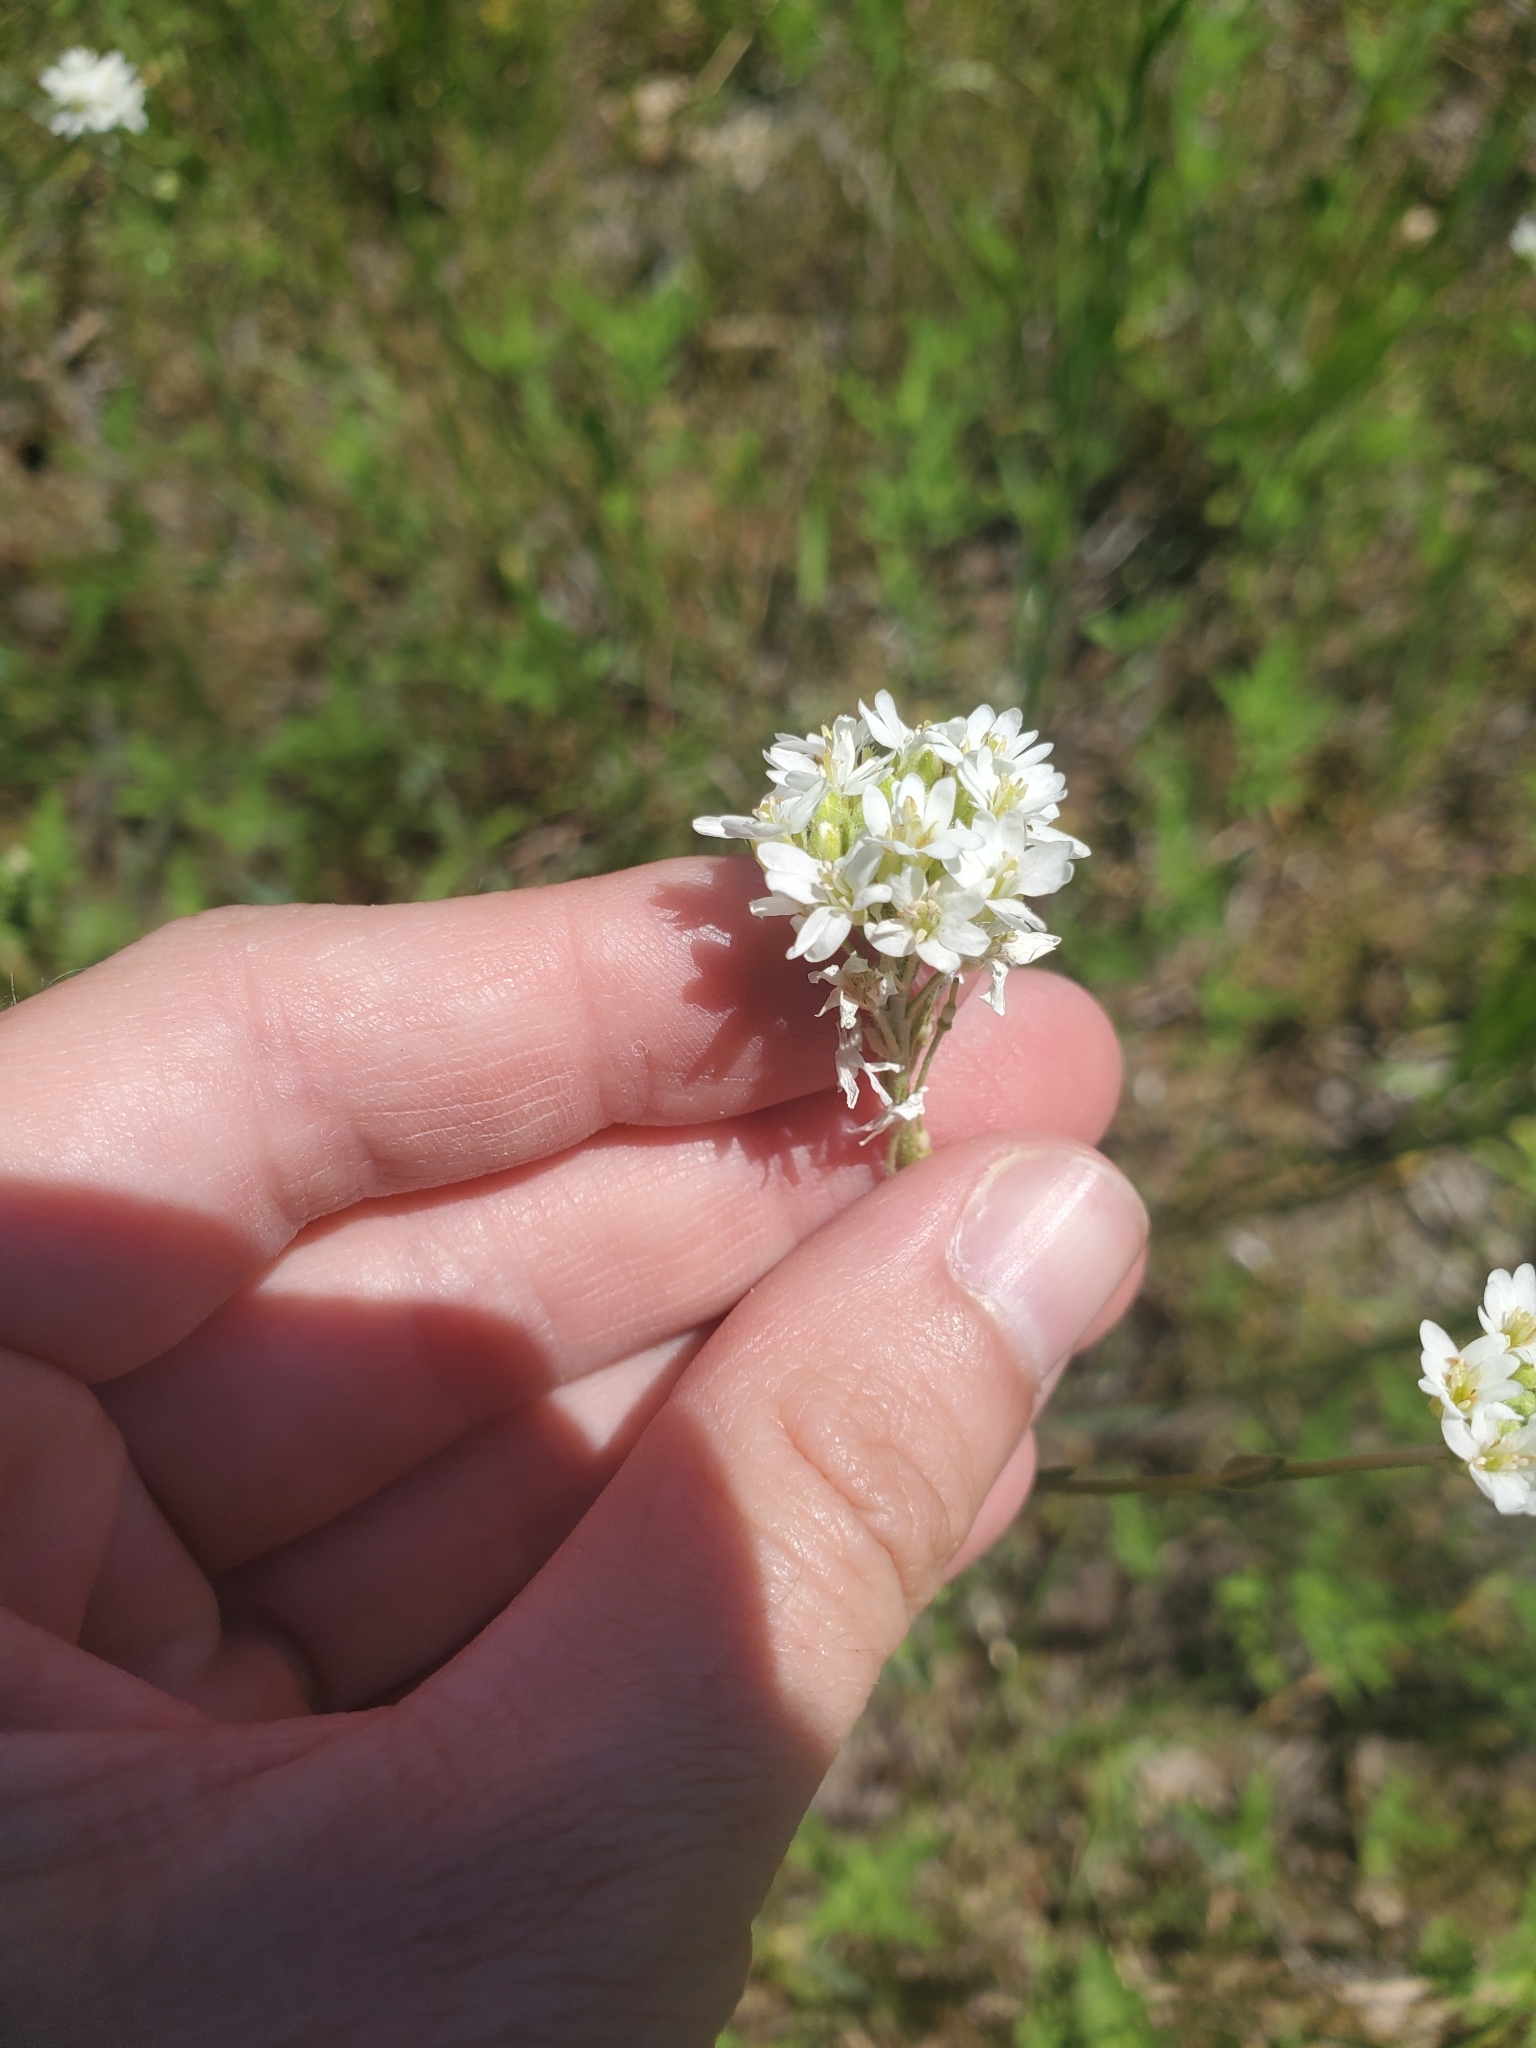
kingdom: Plantae
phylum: Tracheophyta
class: Magnoliopsida
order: Brassicales
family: Brassicaceae
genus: Berteroa
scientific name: Berteroa incana
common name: Hoary alison
